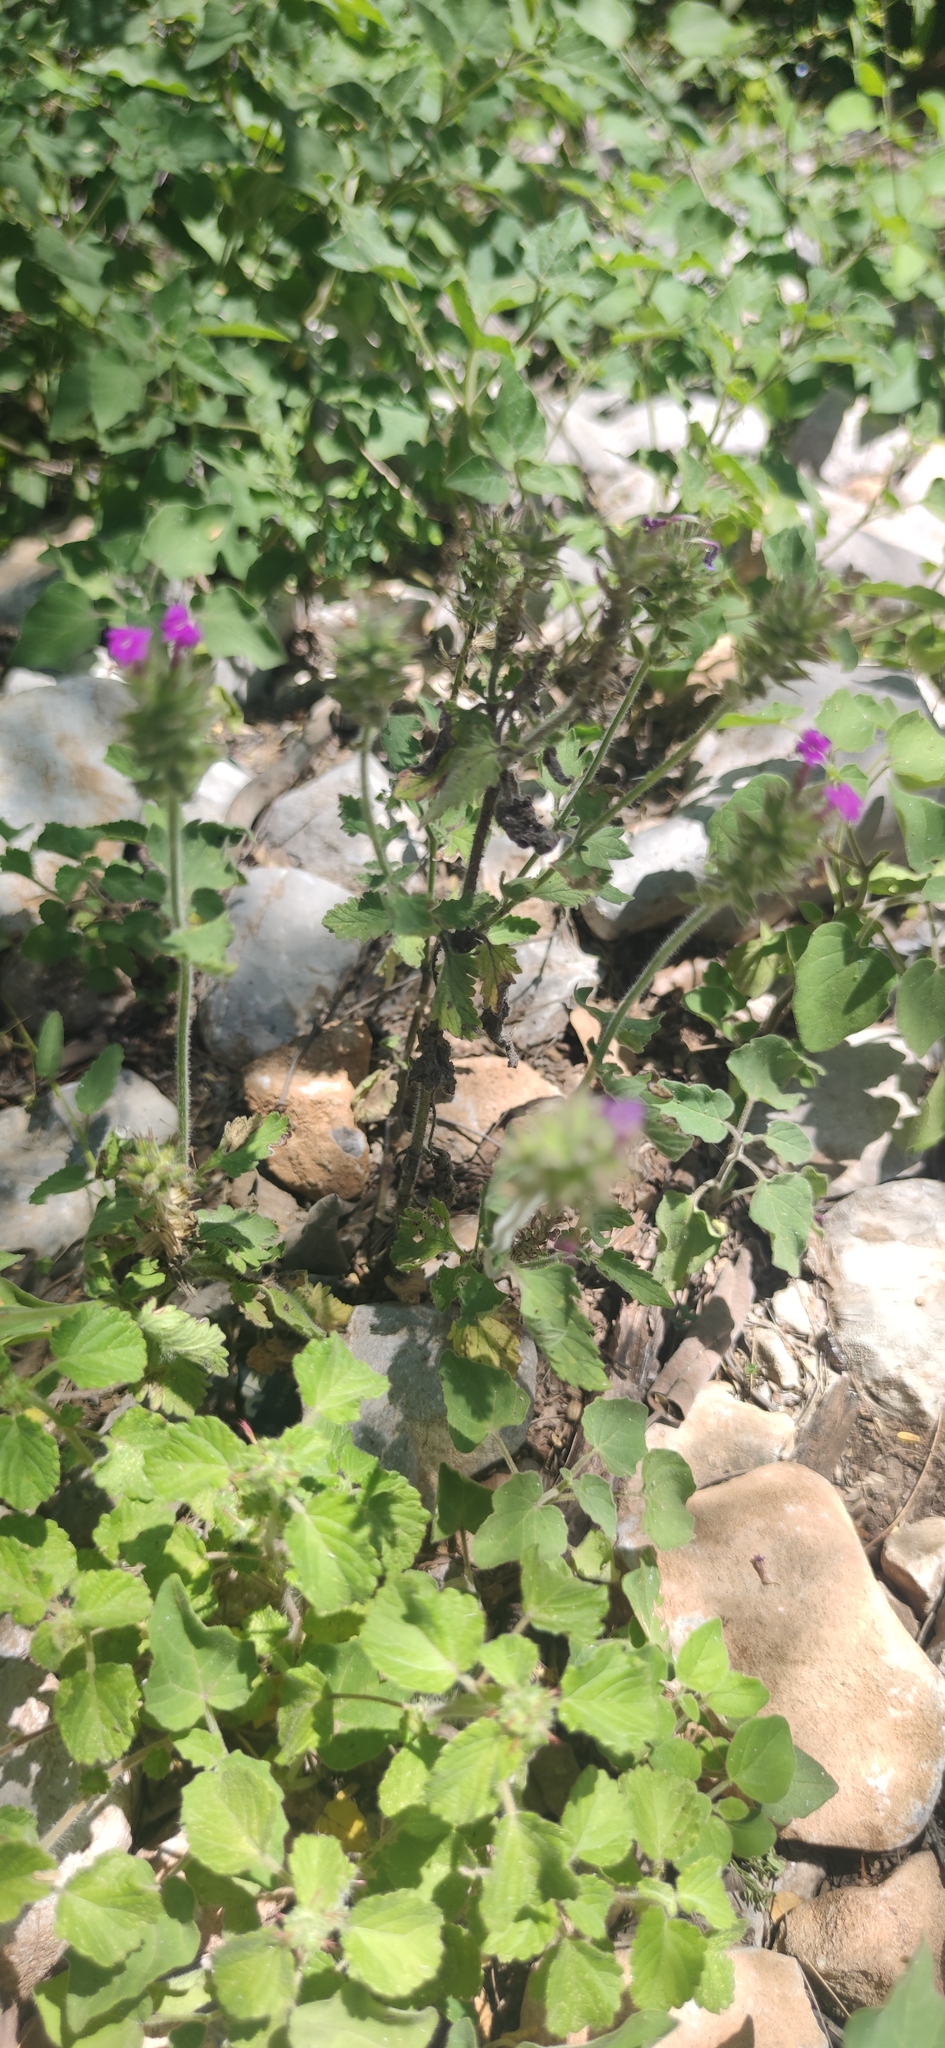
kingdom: Plantae
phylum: Tracheophyta
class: Magnoliopsida
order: Lamiales
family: Verbenaceae
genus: Verbena
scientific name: Verbena canadensis
